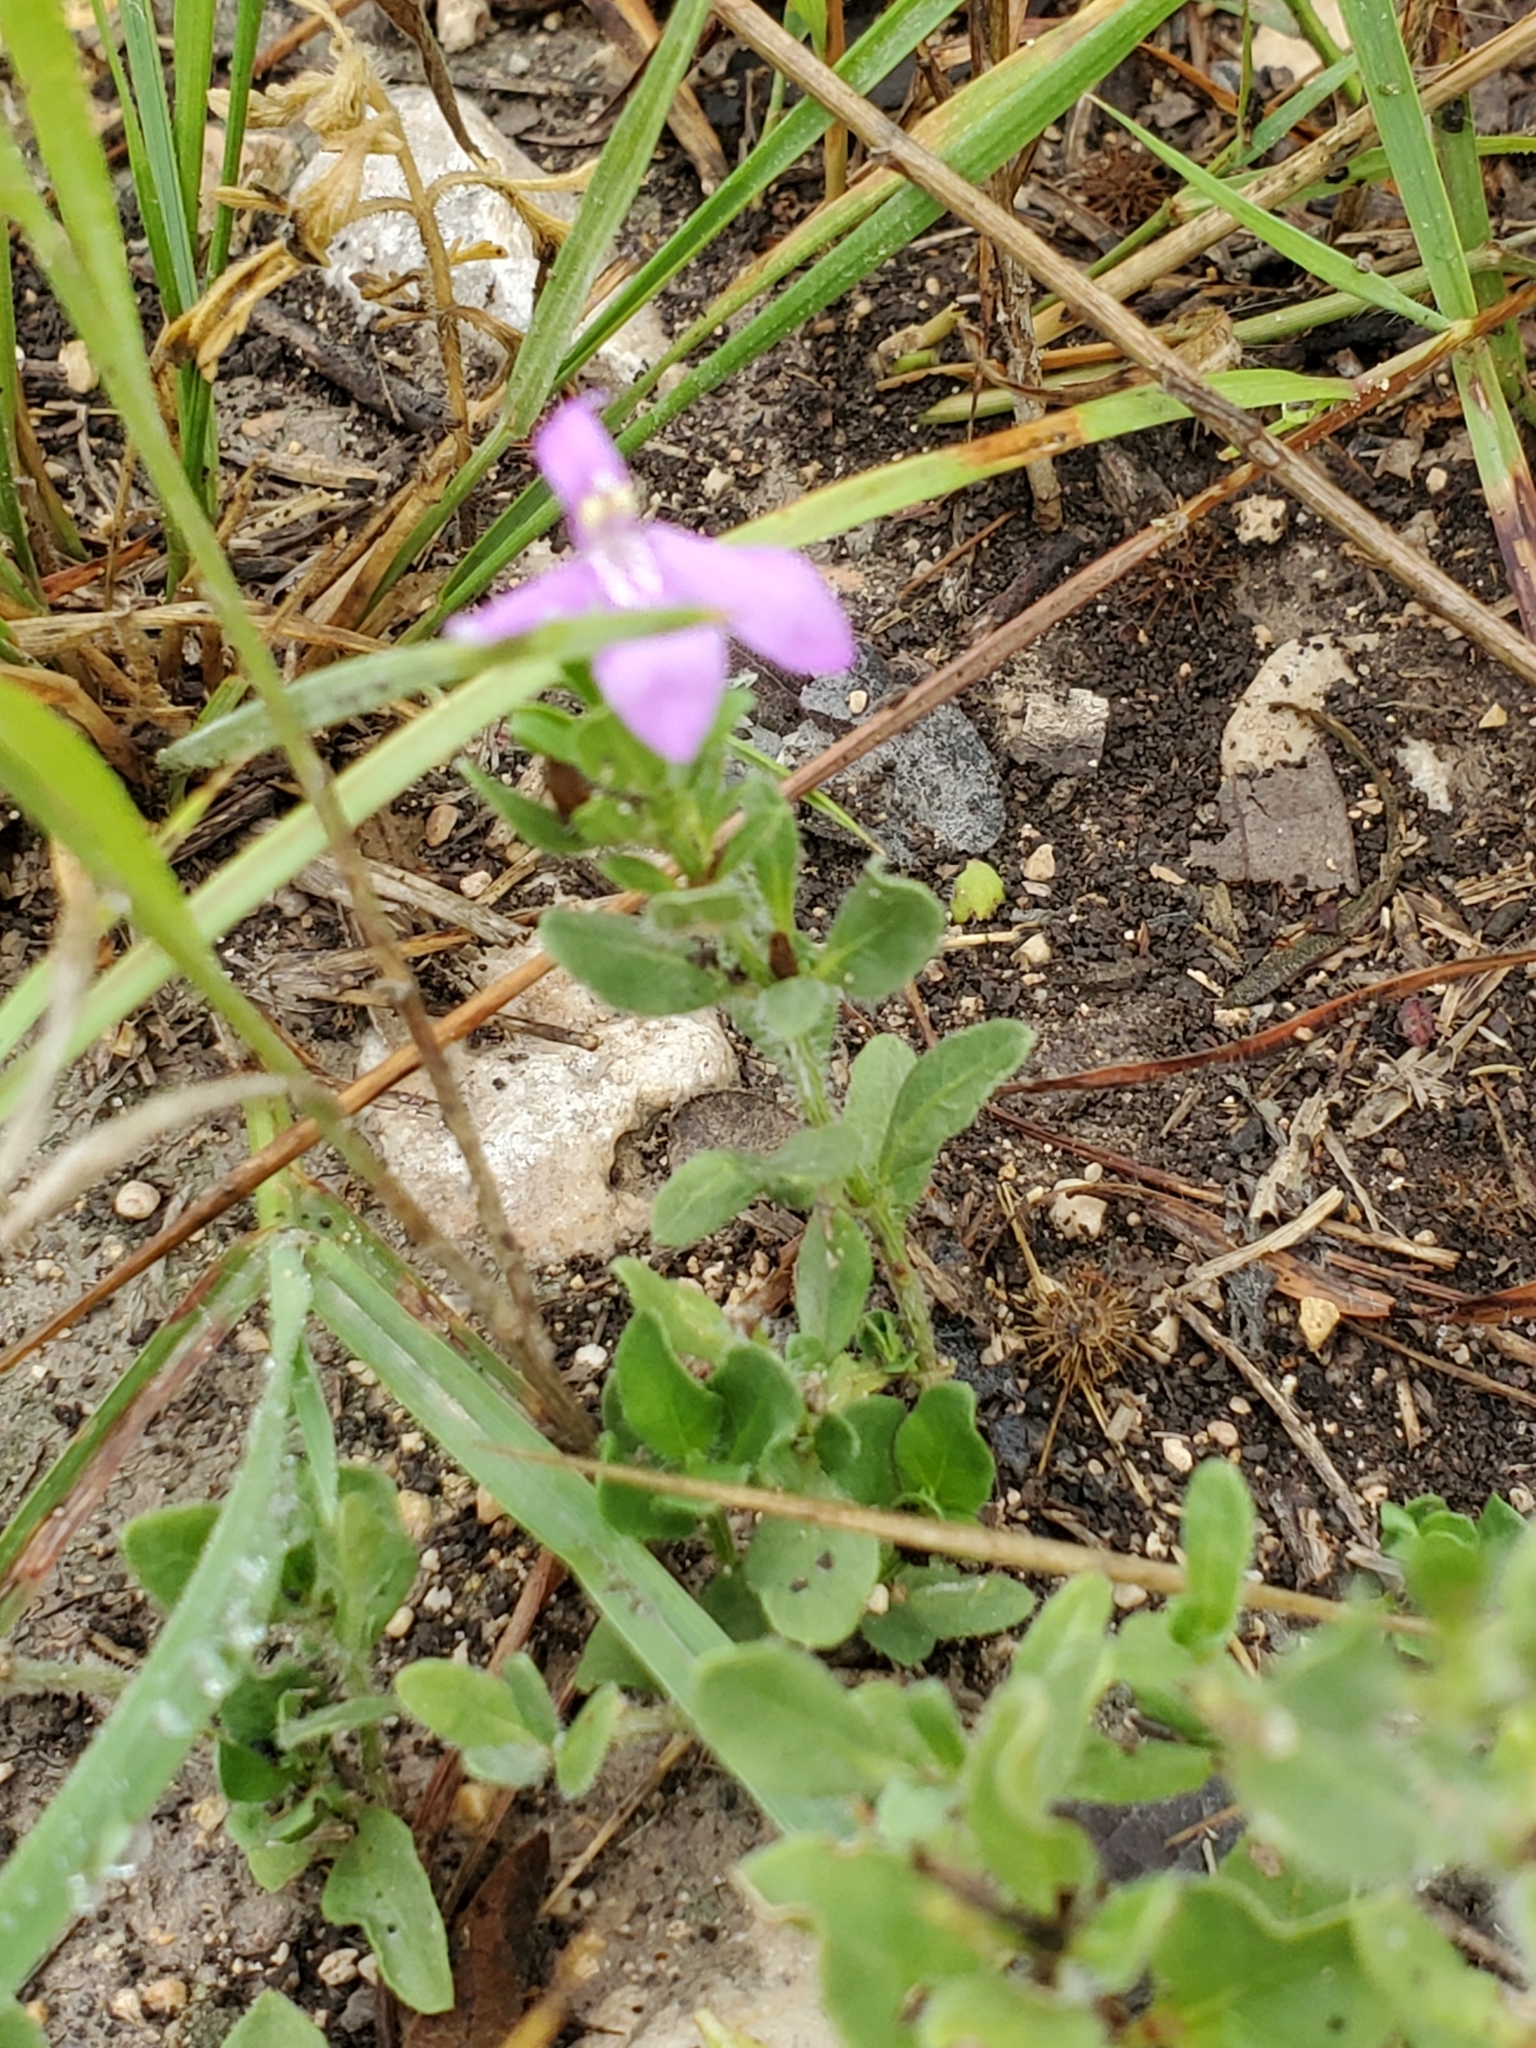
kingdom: Plantae
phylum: Tracheophyta
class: Magnoliopsida
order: Lamiales
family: Acanthaceae
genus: Justicia
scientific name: Justicia pilosella
